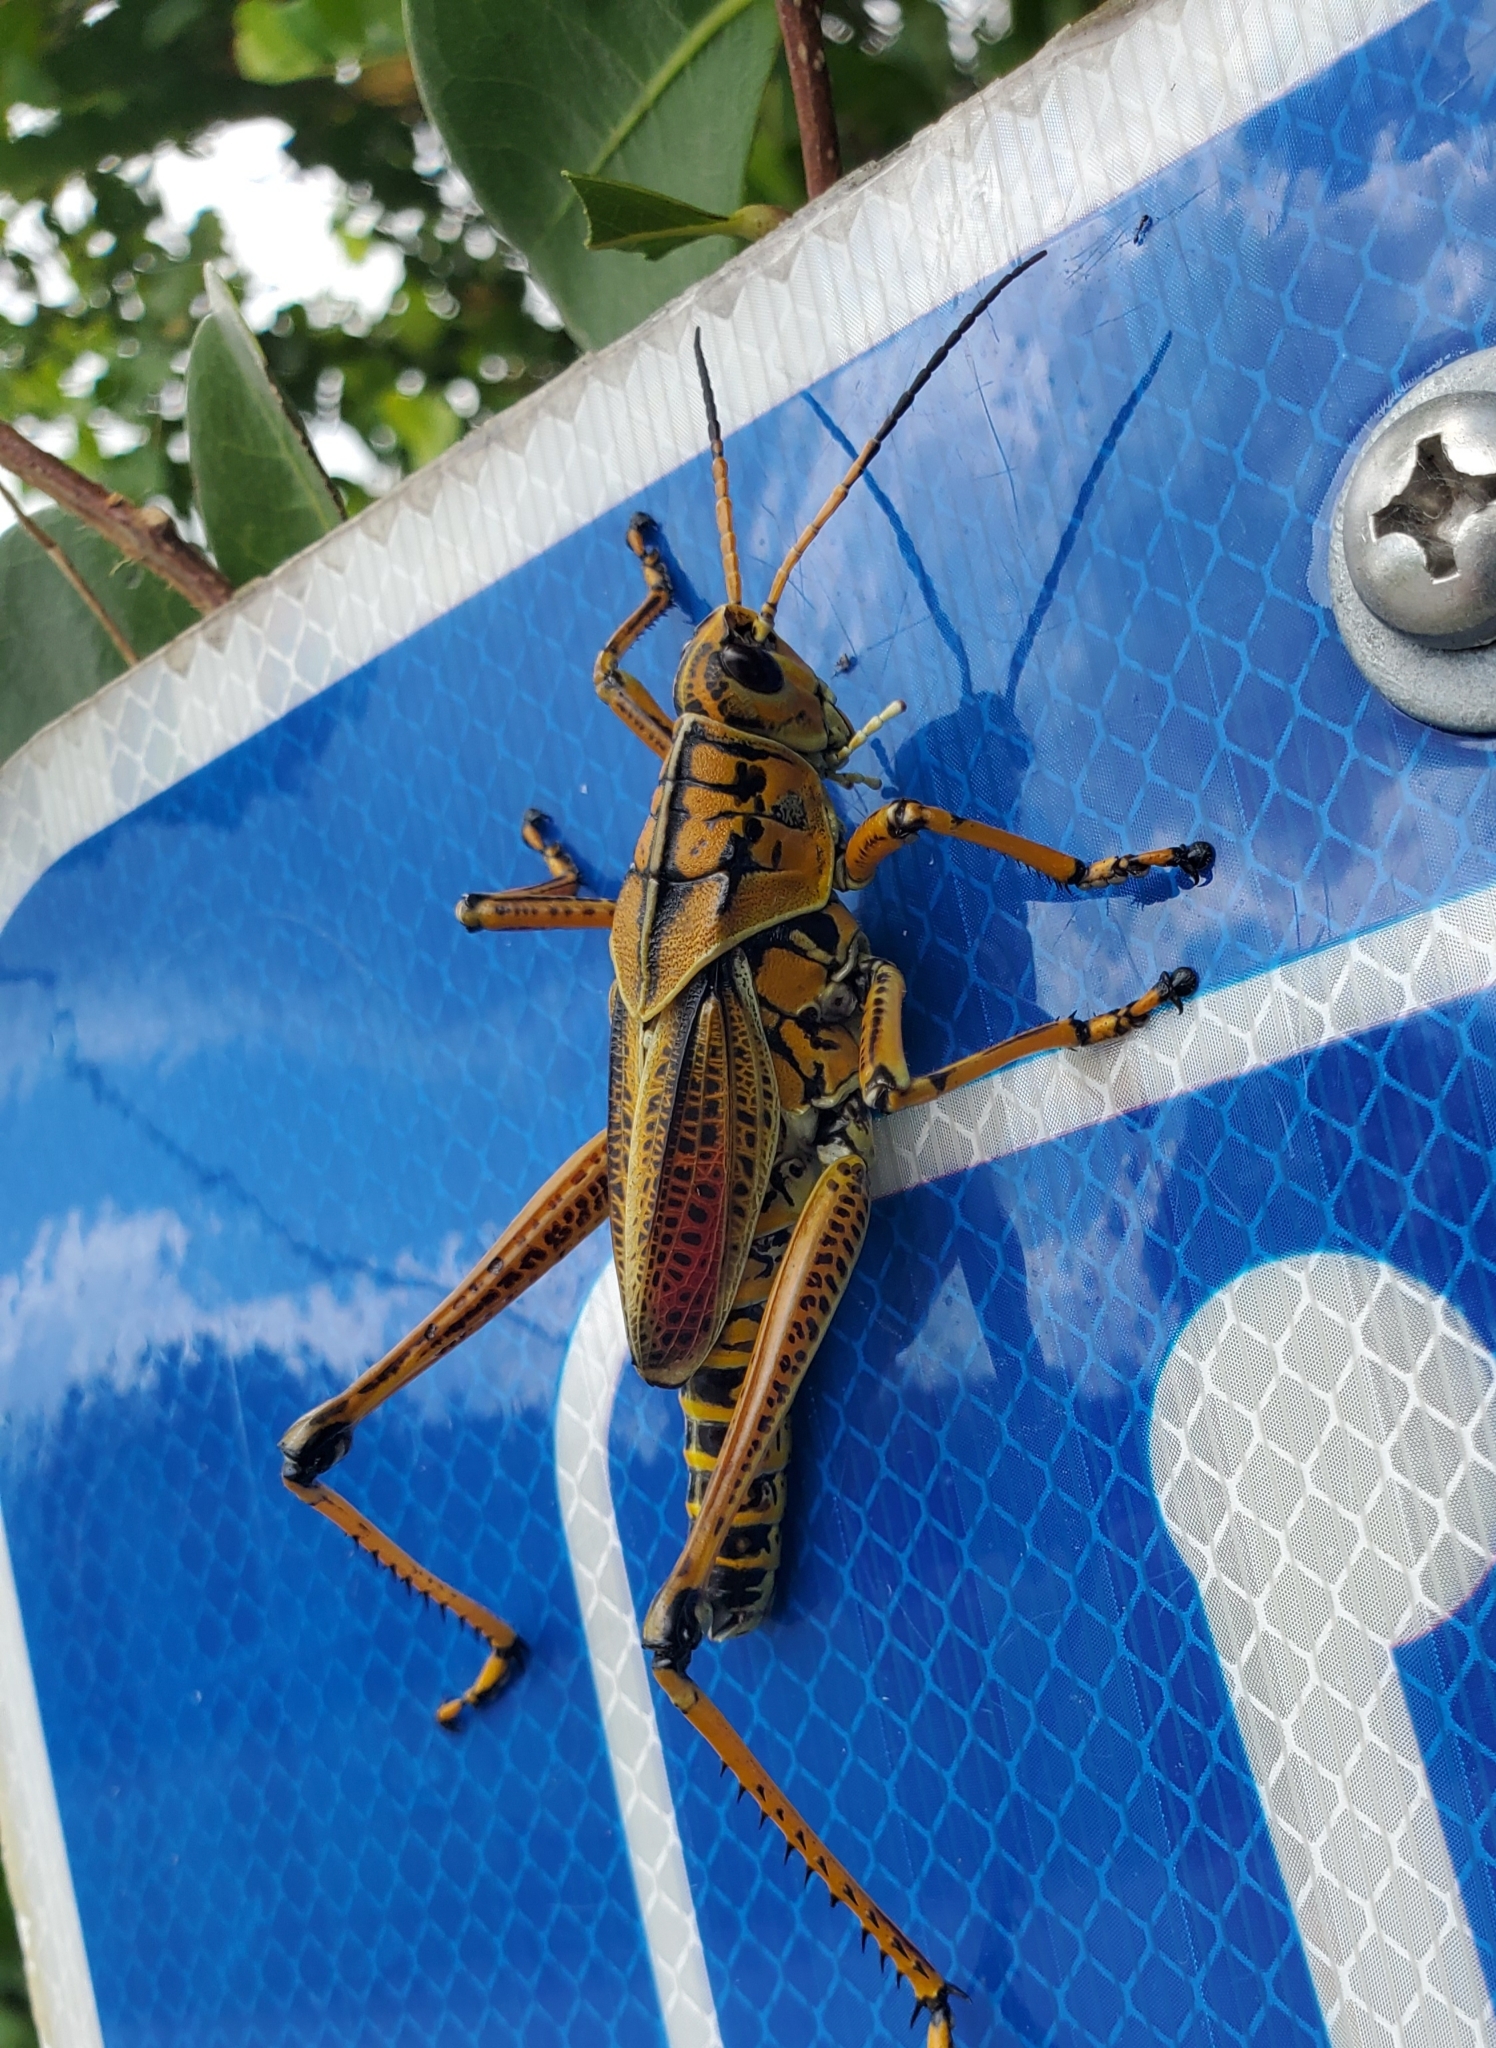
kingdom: Animalia
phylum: Arthropoda
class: Insecta
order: Orthoptera
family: Romaleidae
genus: Romalea
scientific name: Romalea microptera
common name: Eastern lubber grasshopper
